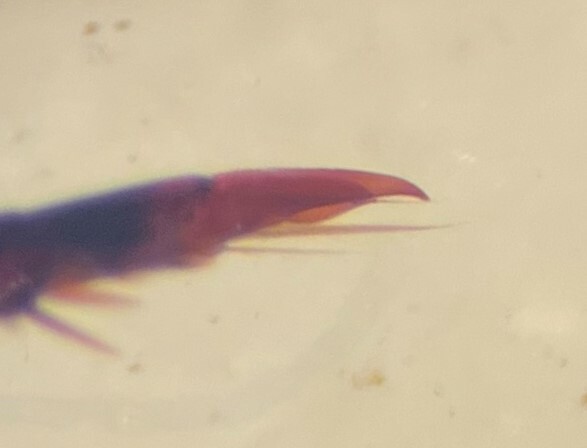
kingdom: Animalia
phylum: Arthropoda
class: Insecta
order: Coleoptera
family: Dytiscidae
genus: Ilybius
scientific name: Ilybius angustior
